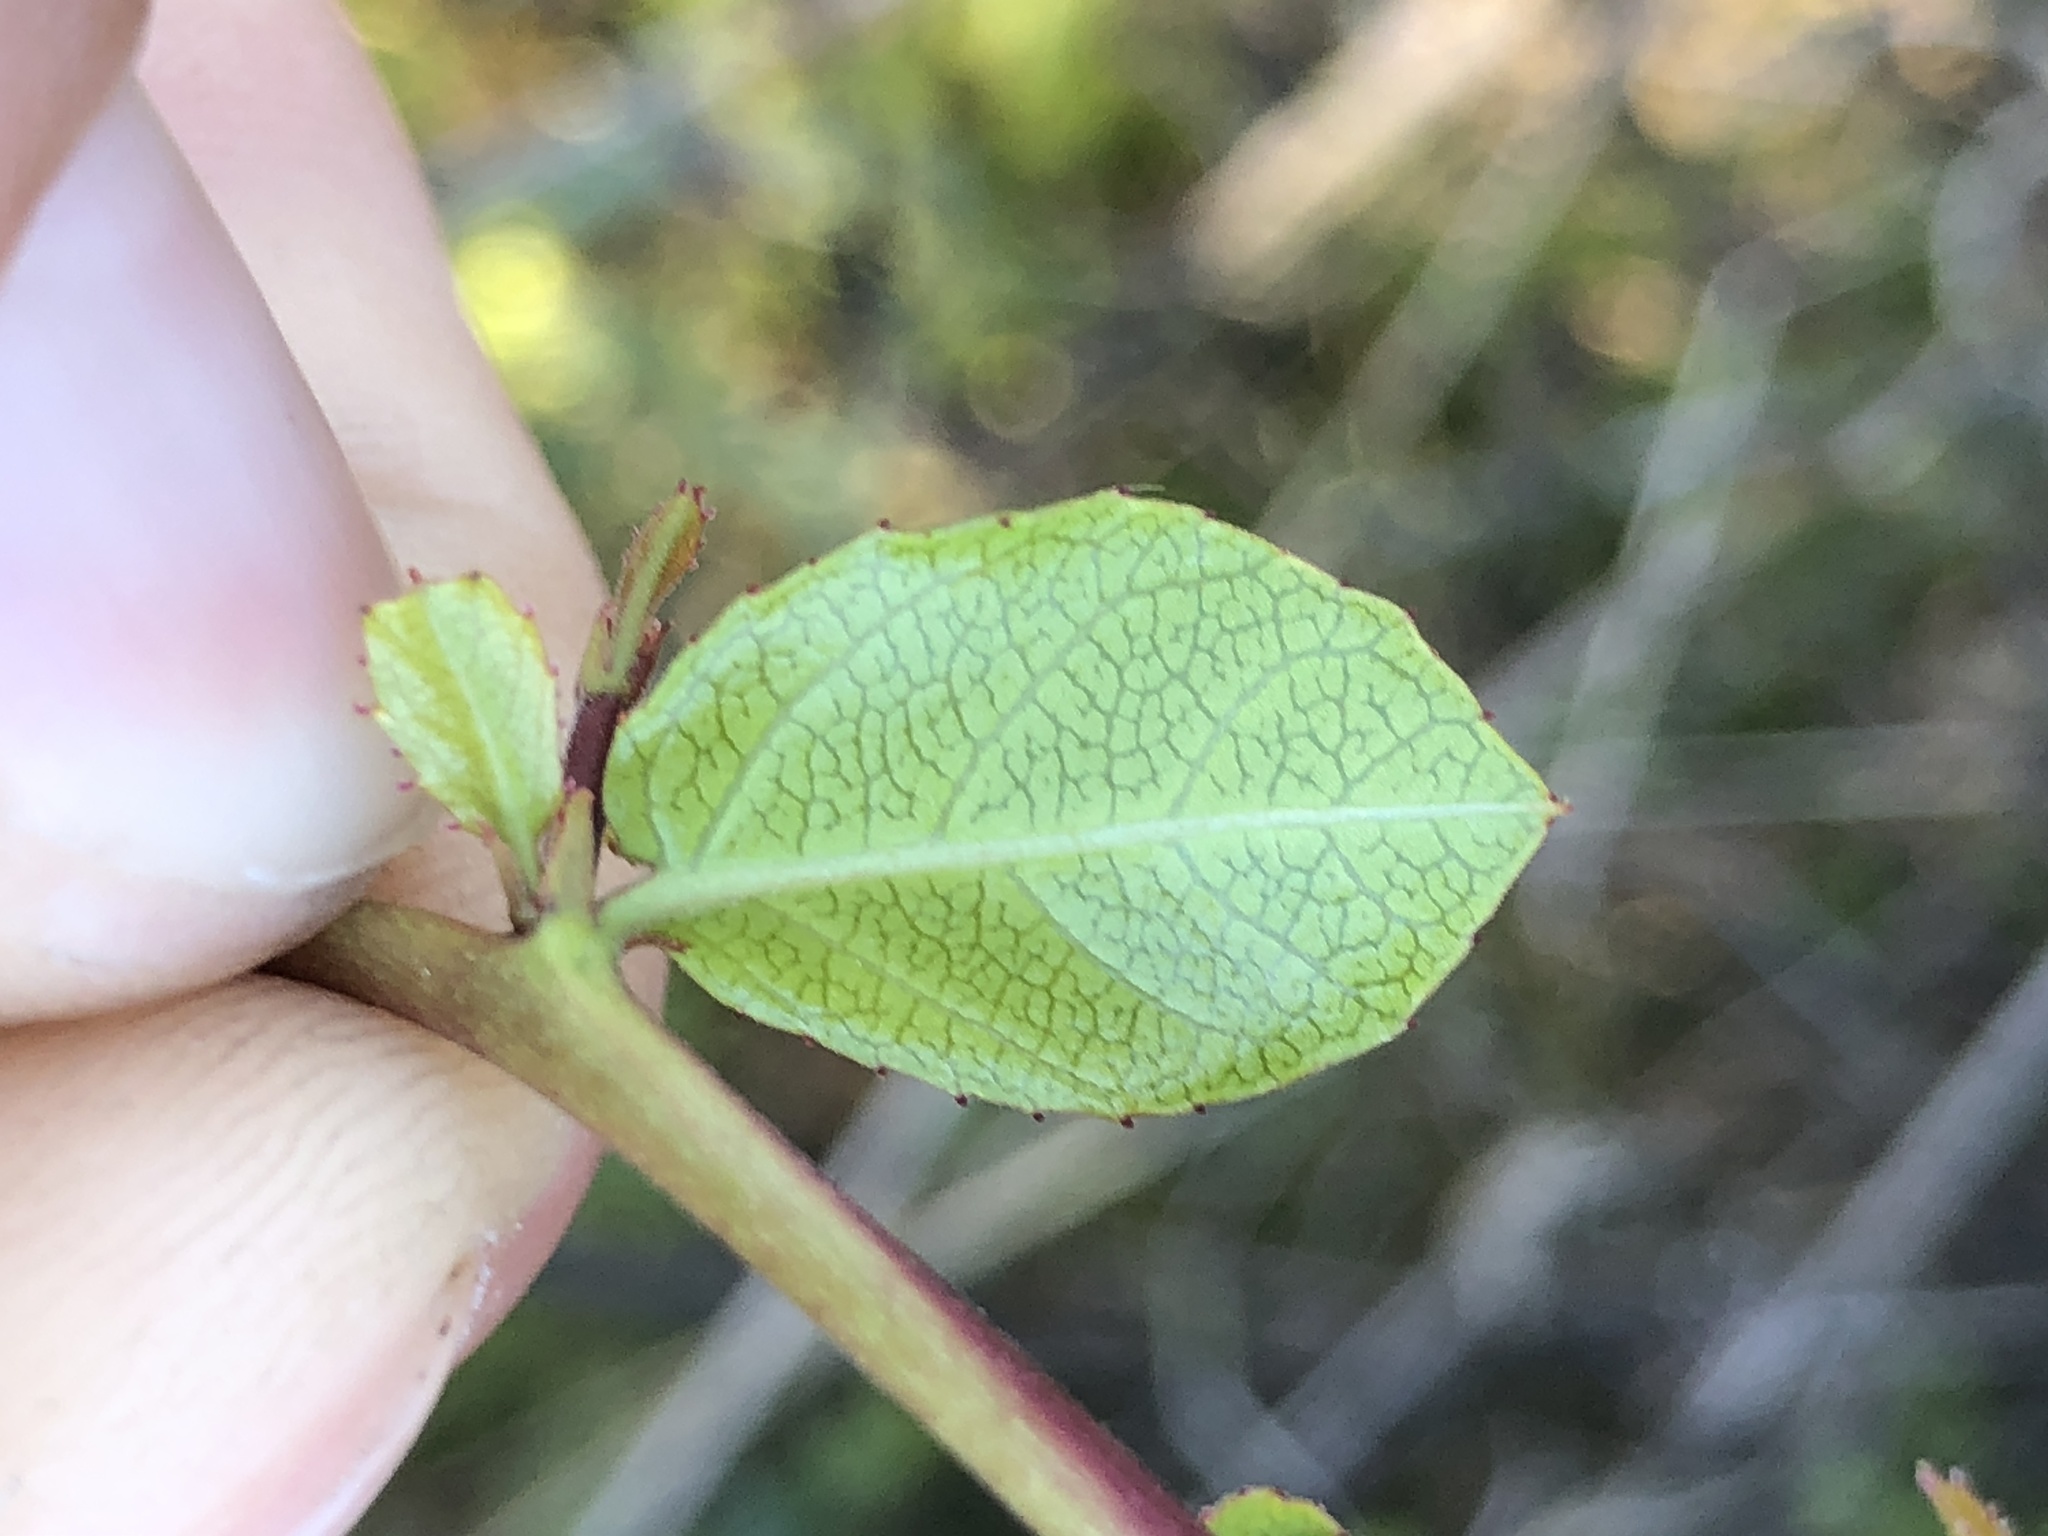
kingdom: Plantae
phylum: Tracheophyta
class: Magnoliopsida
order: Rosales
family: Rhamnaceae
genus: Endotropis
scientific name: Endotropis crocea
